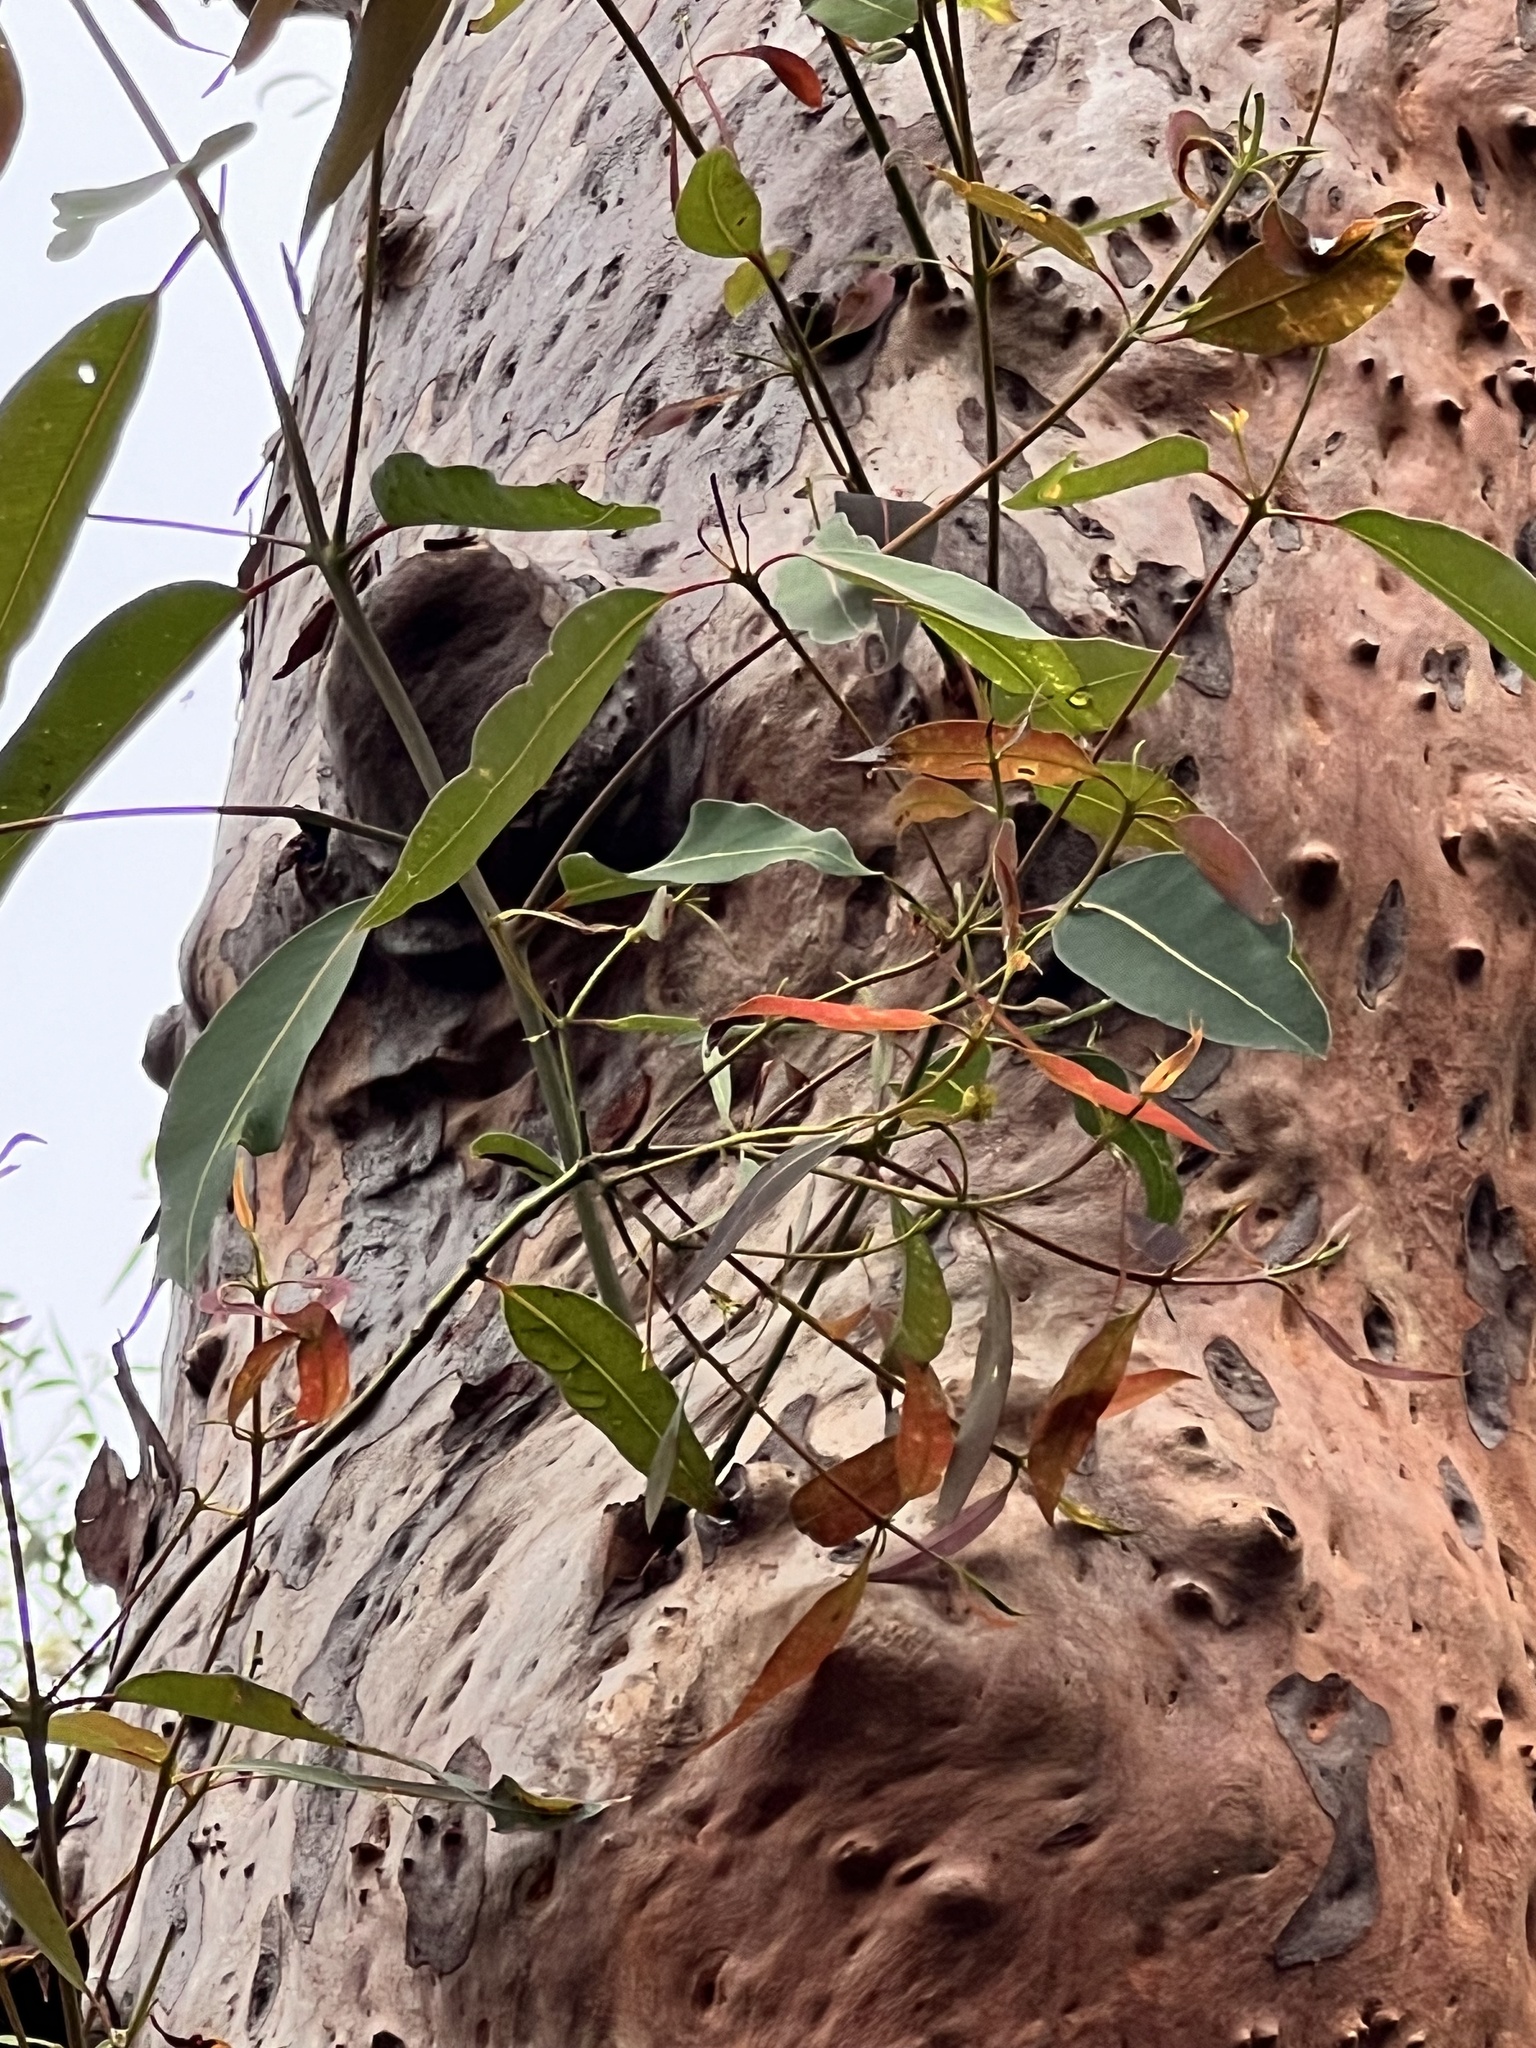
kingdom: Plantae
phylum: Tracheophyta
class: Magnoliopsida
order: Myrtales
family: Myrtaceae
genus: Angophora
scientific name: Angophora costata
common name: Gum myrtle
